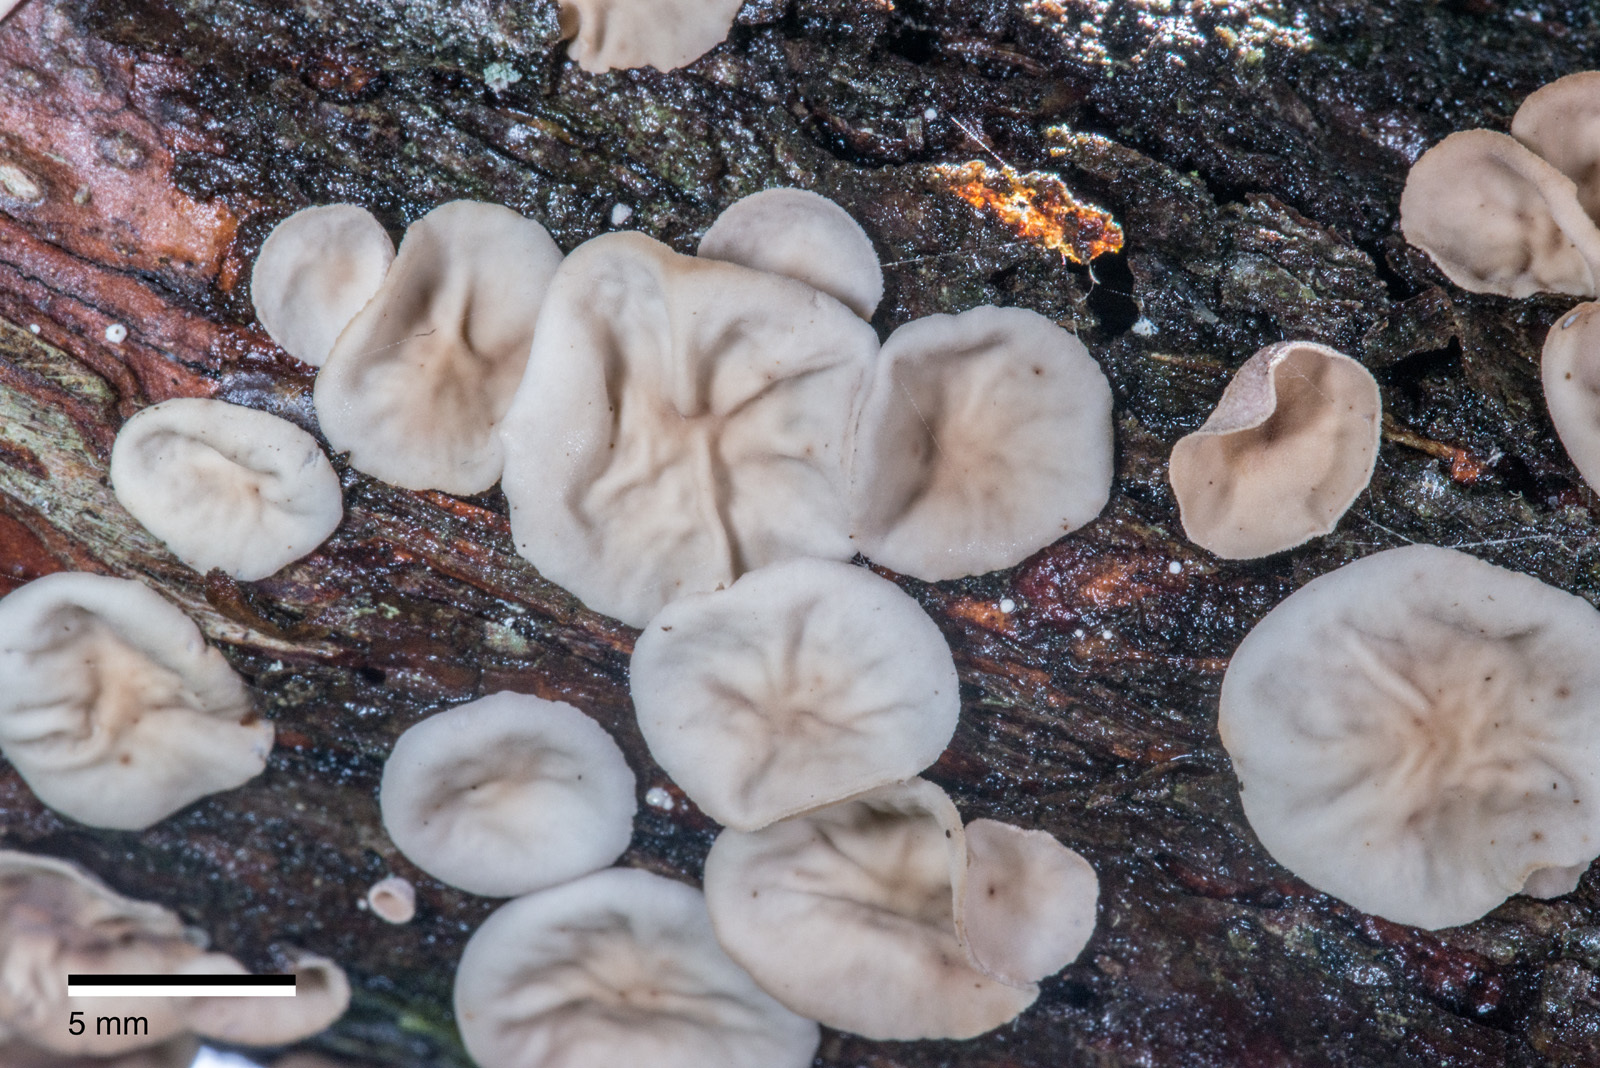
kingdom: Fungi
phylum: Basidiomycota
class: Agaricomycetes
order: Agaricales
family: Marasmiaceae
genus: Calyptella
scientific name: Calyptella totara
